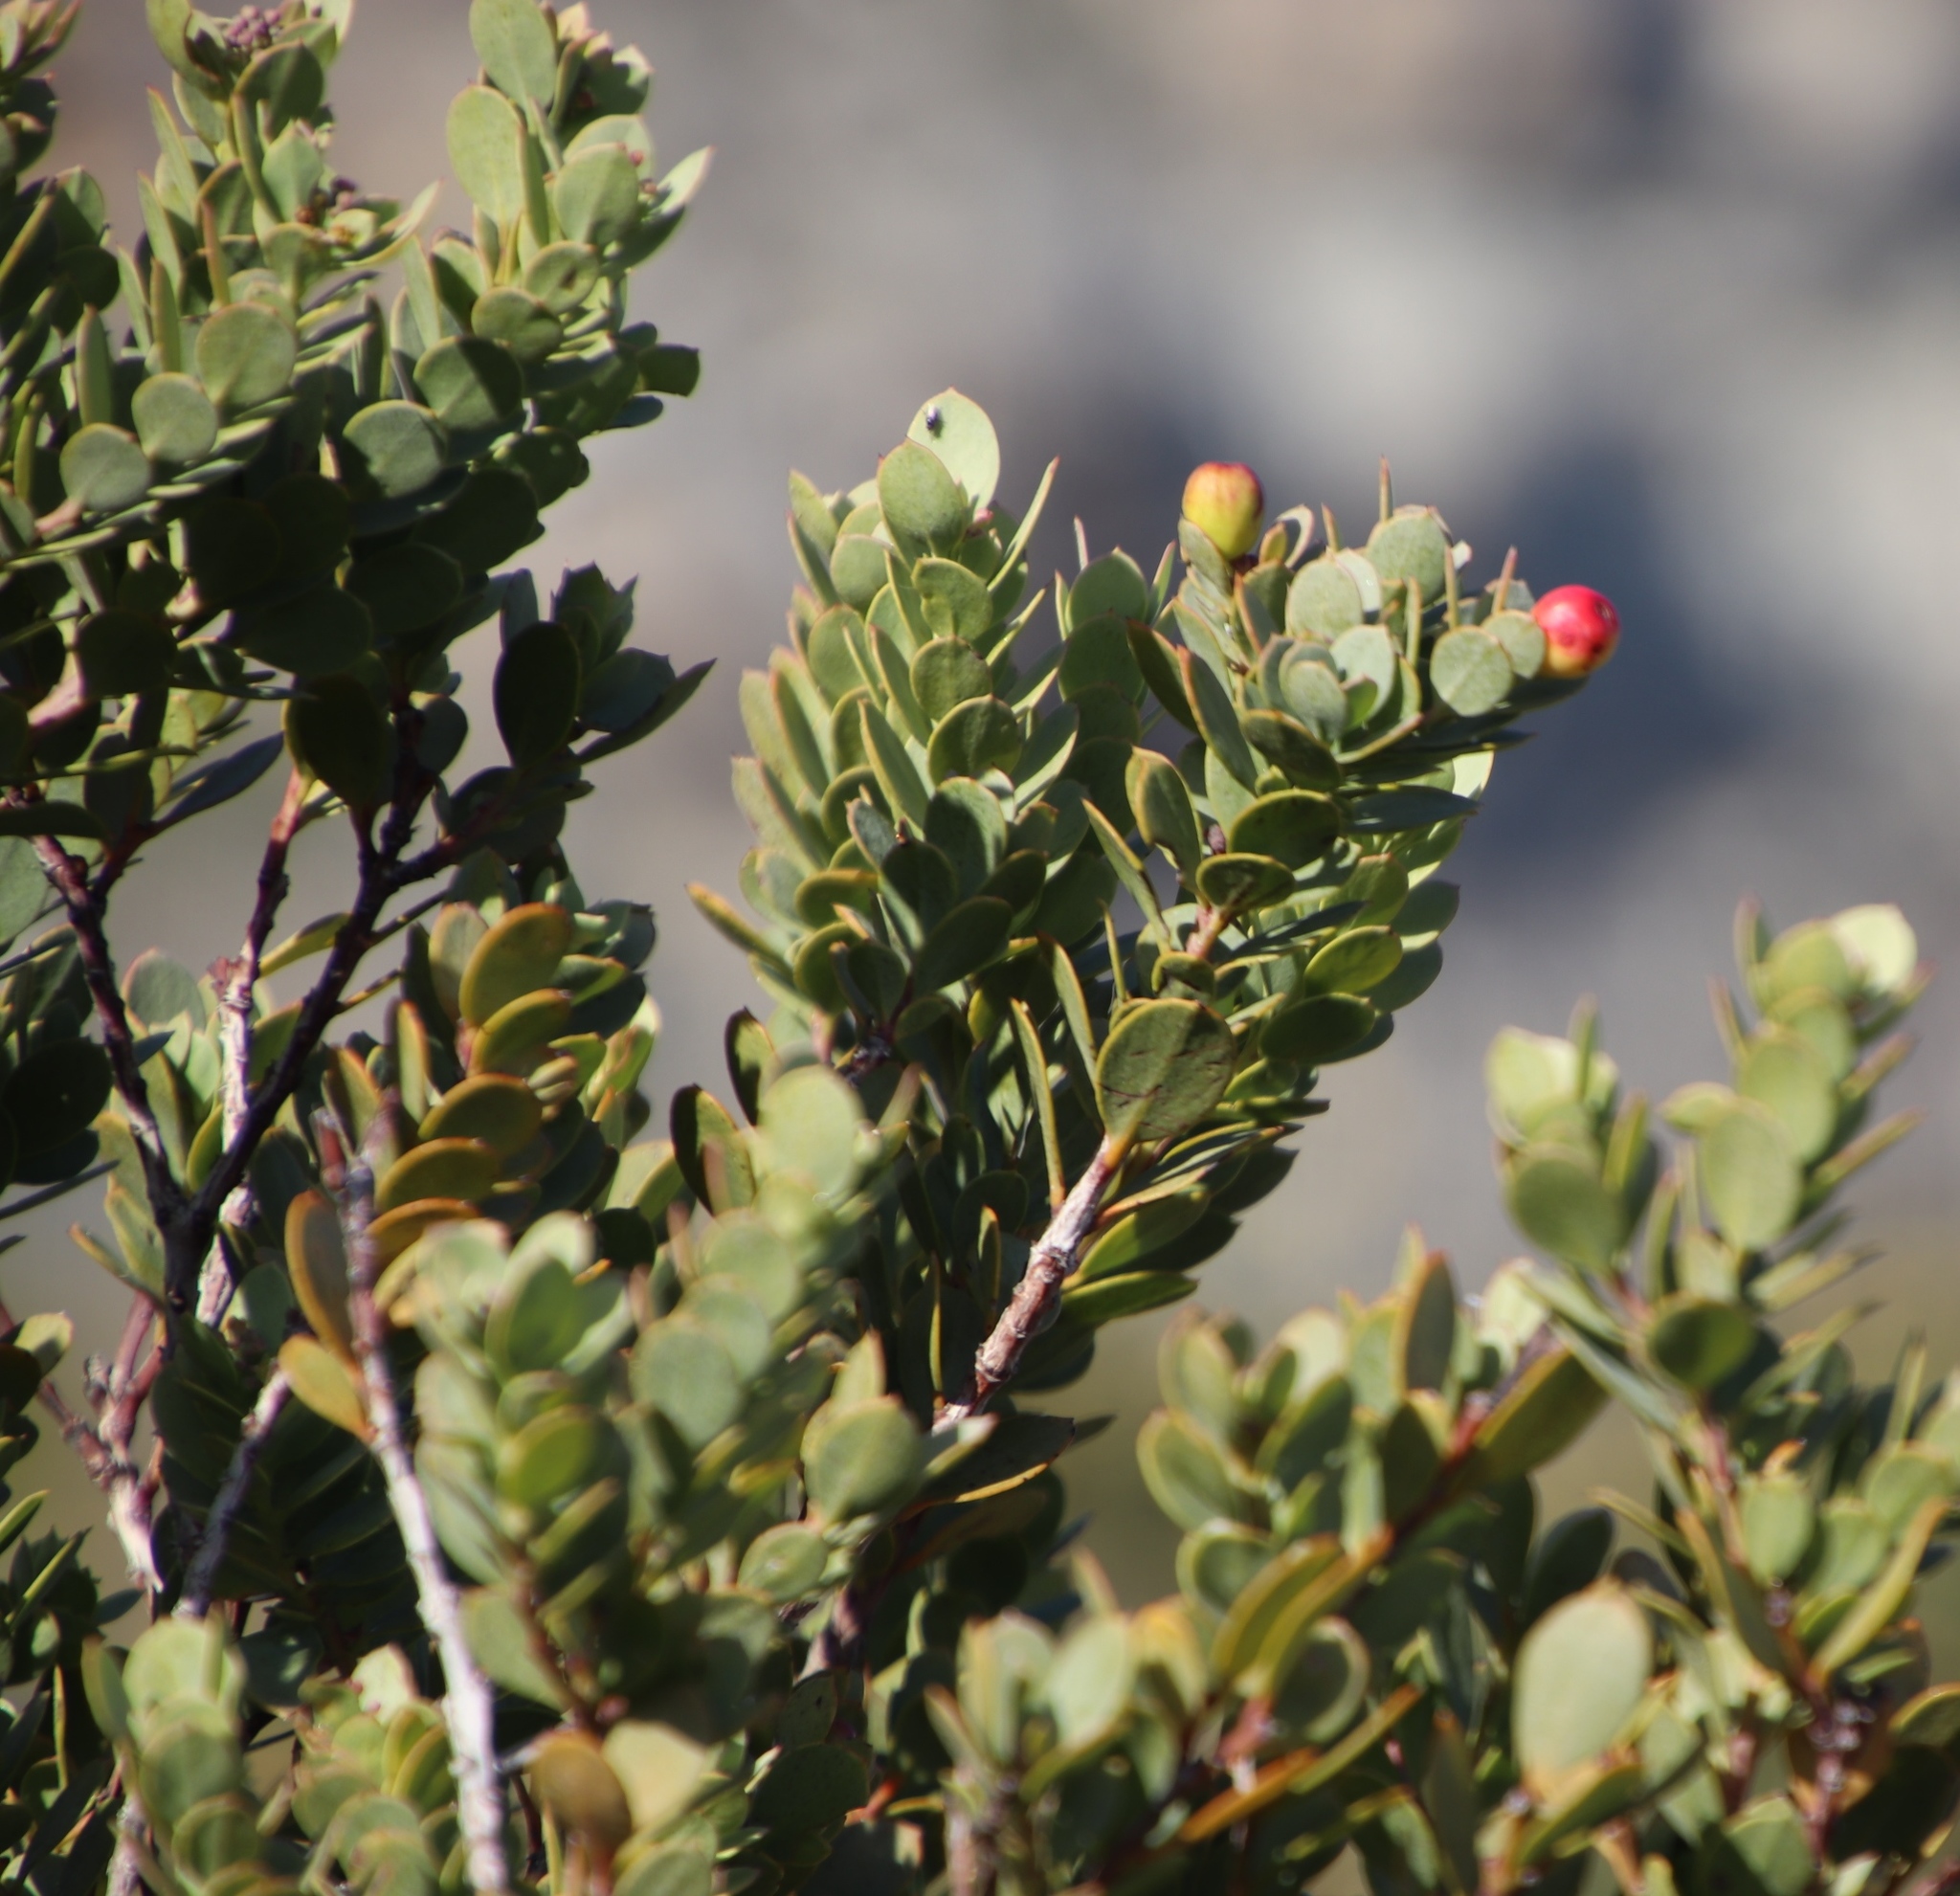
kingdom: Plantae
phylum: Tracheophyta
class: Magnoliopsida
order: Santalales
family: Santalaceae
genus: Osyris
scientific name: Osyris compressa
